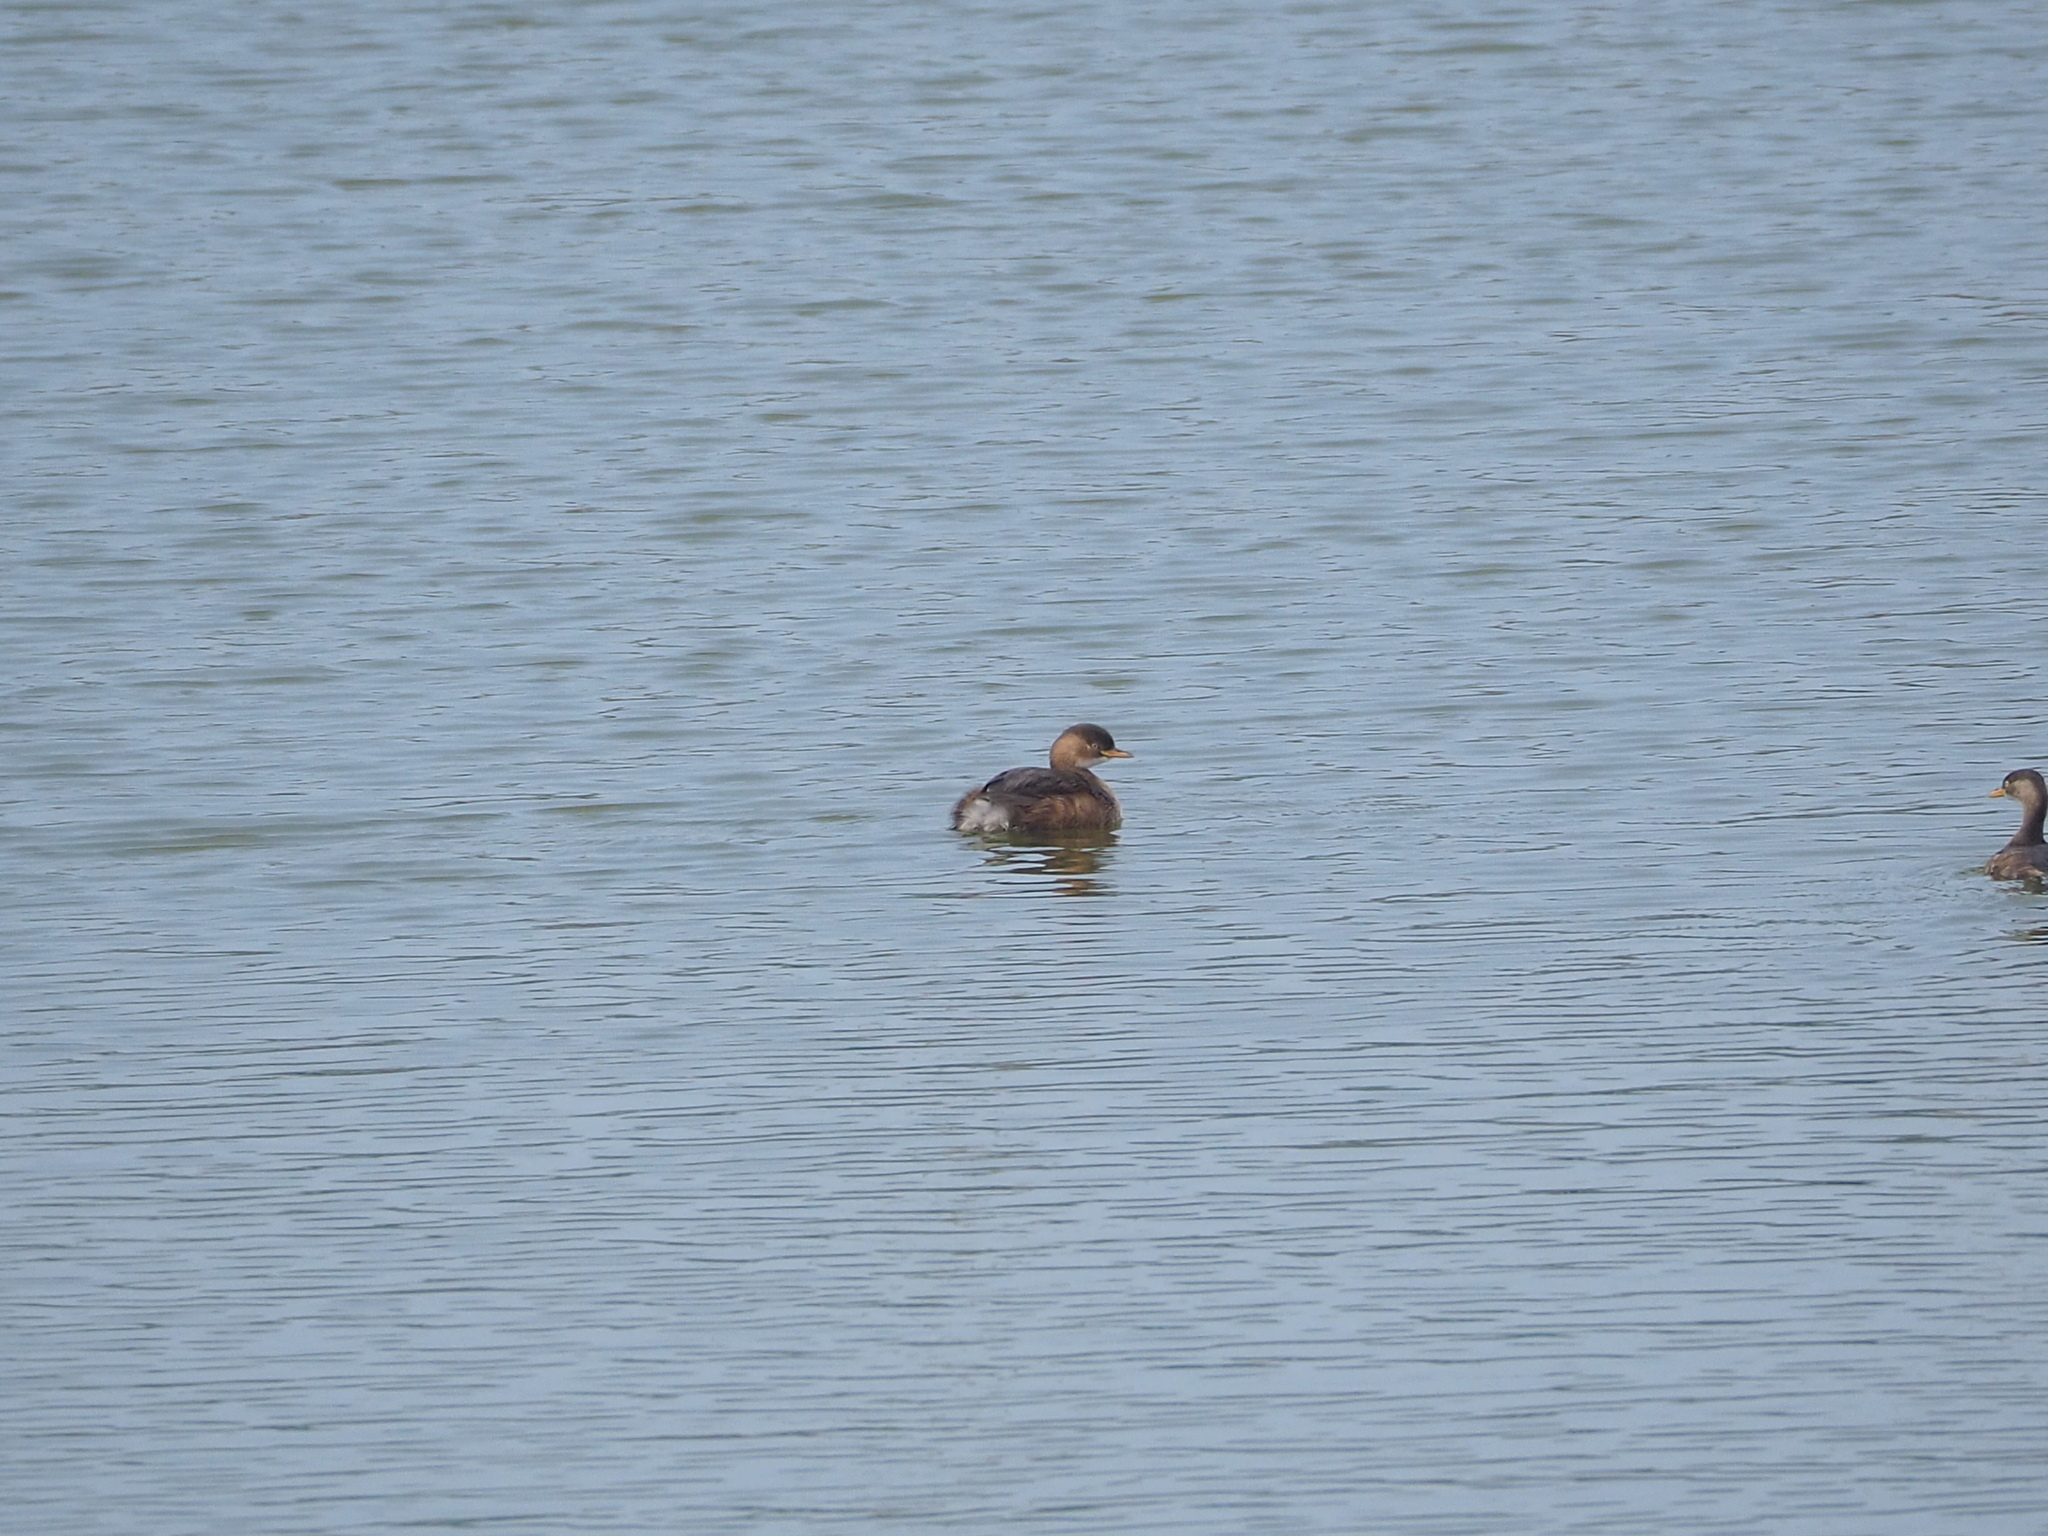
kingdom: Animalia
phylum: Chordata
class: Aves
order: Podicipediformes
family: Podicipedidae
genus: Tachybaptus
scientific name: Tachybaptus ruficollis
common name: Little grebe
